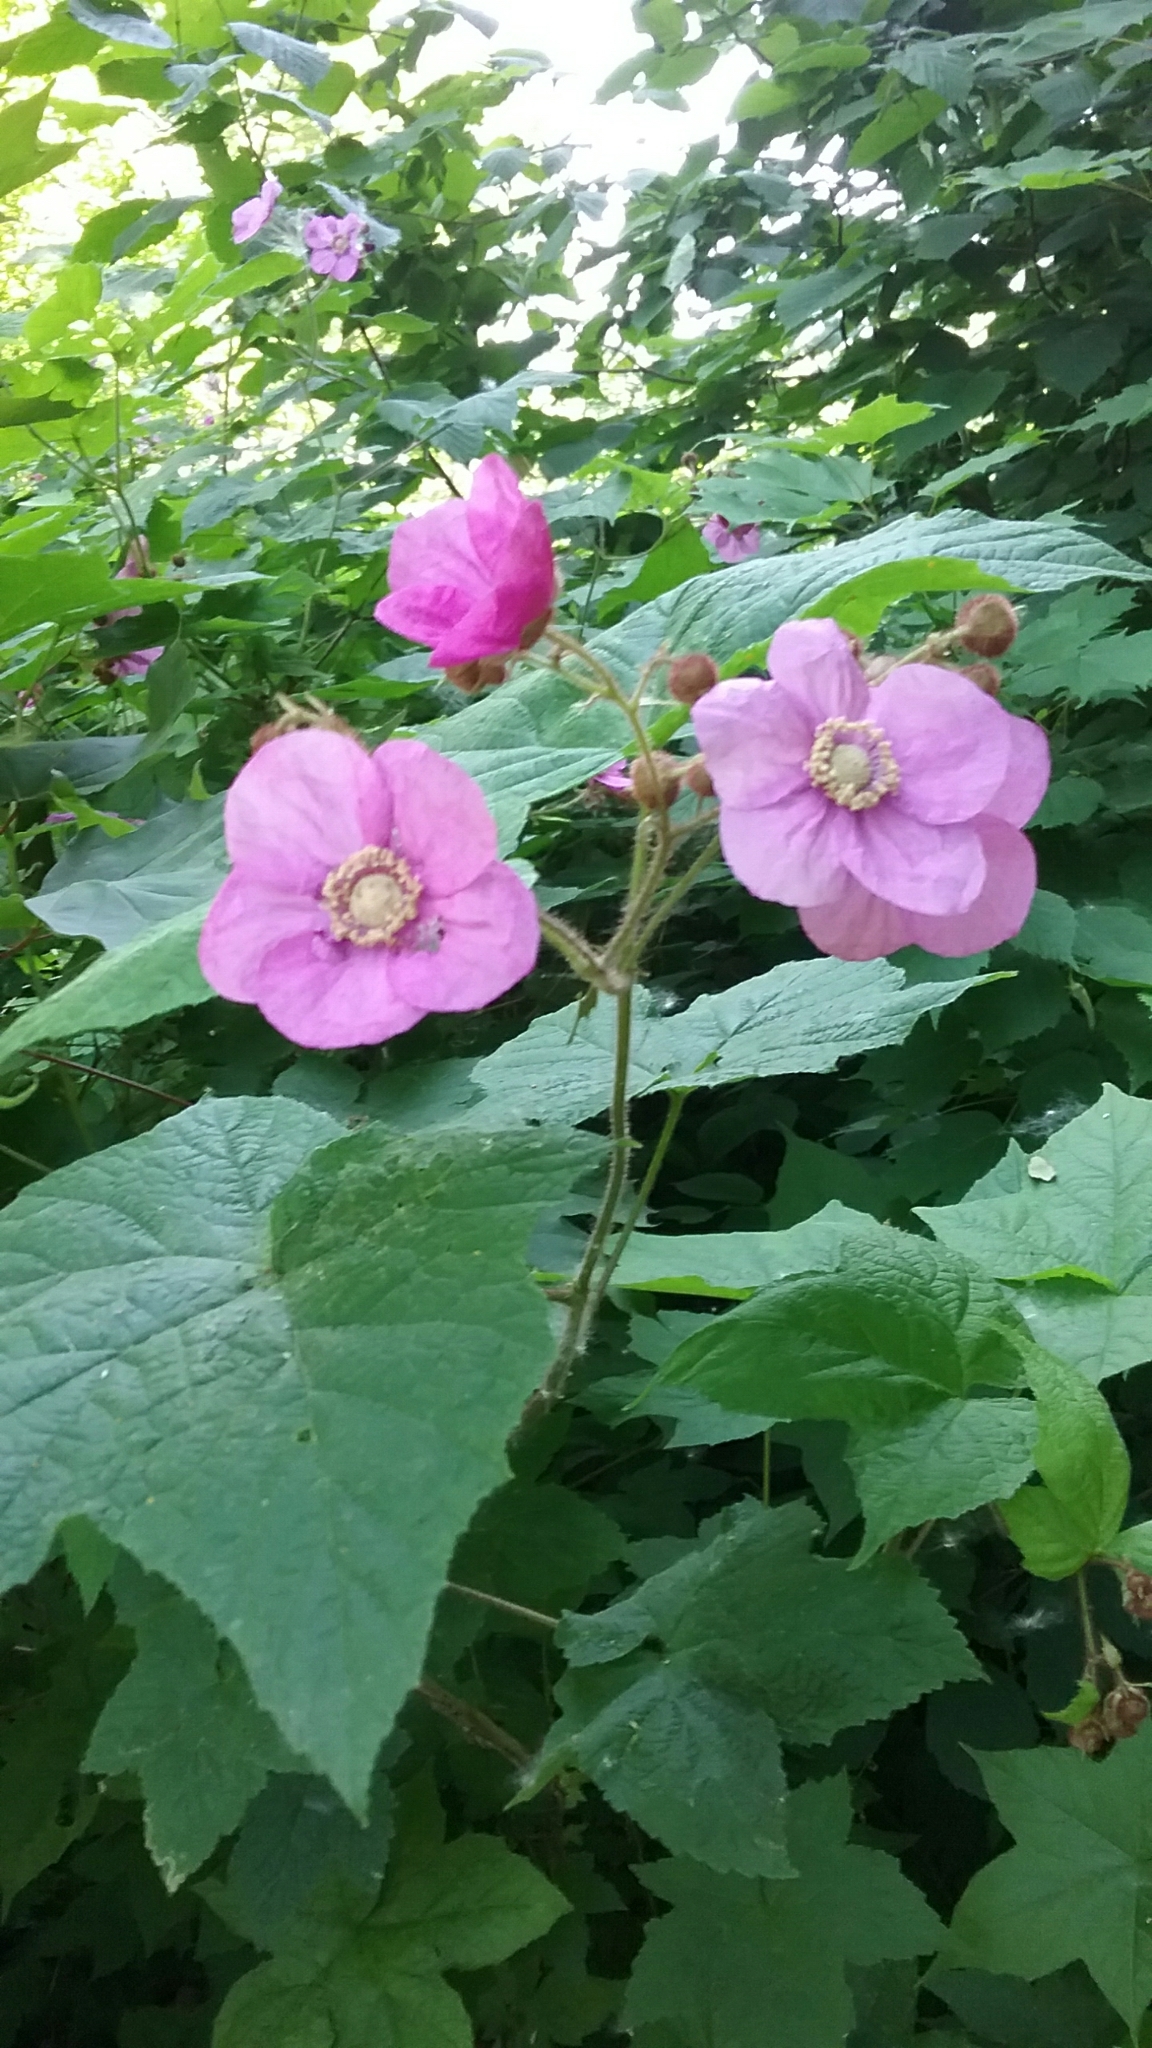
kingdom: Plantae
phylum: Tracheophyta
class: Magnoliopsida
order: Rosales
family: Rosaceae
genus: Rubus
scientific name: Rubus odoratus
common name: Purple-flowered raspberry
